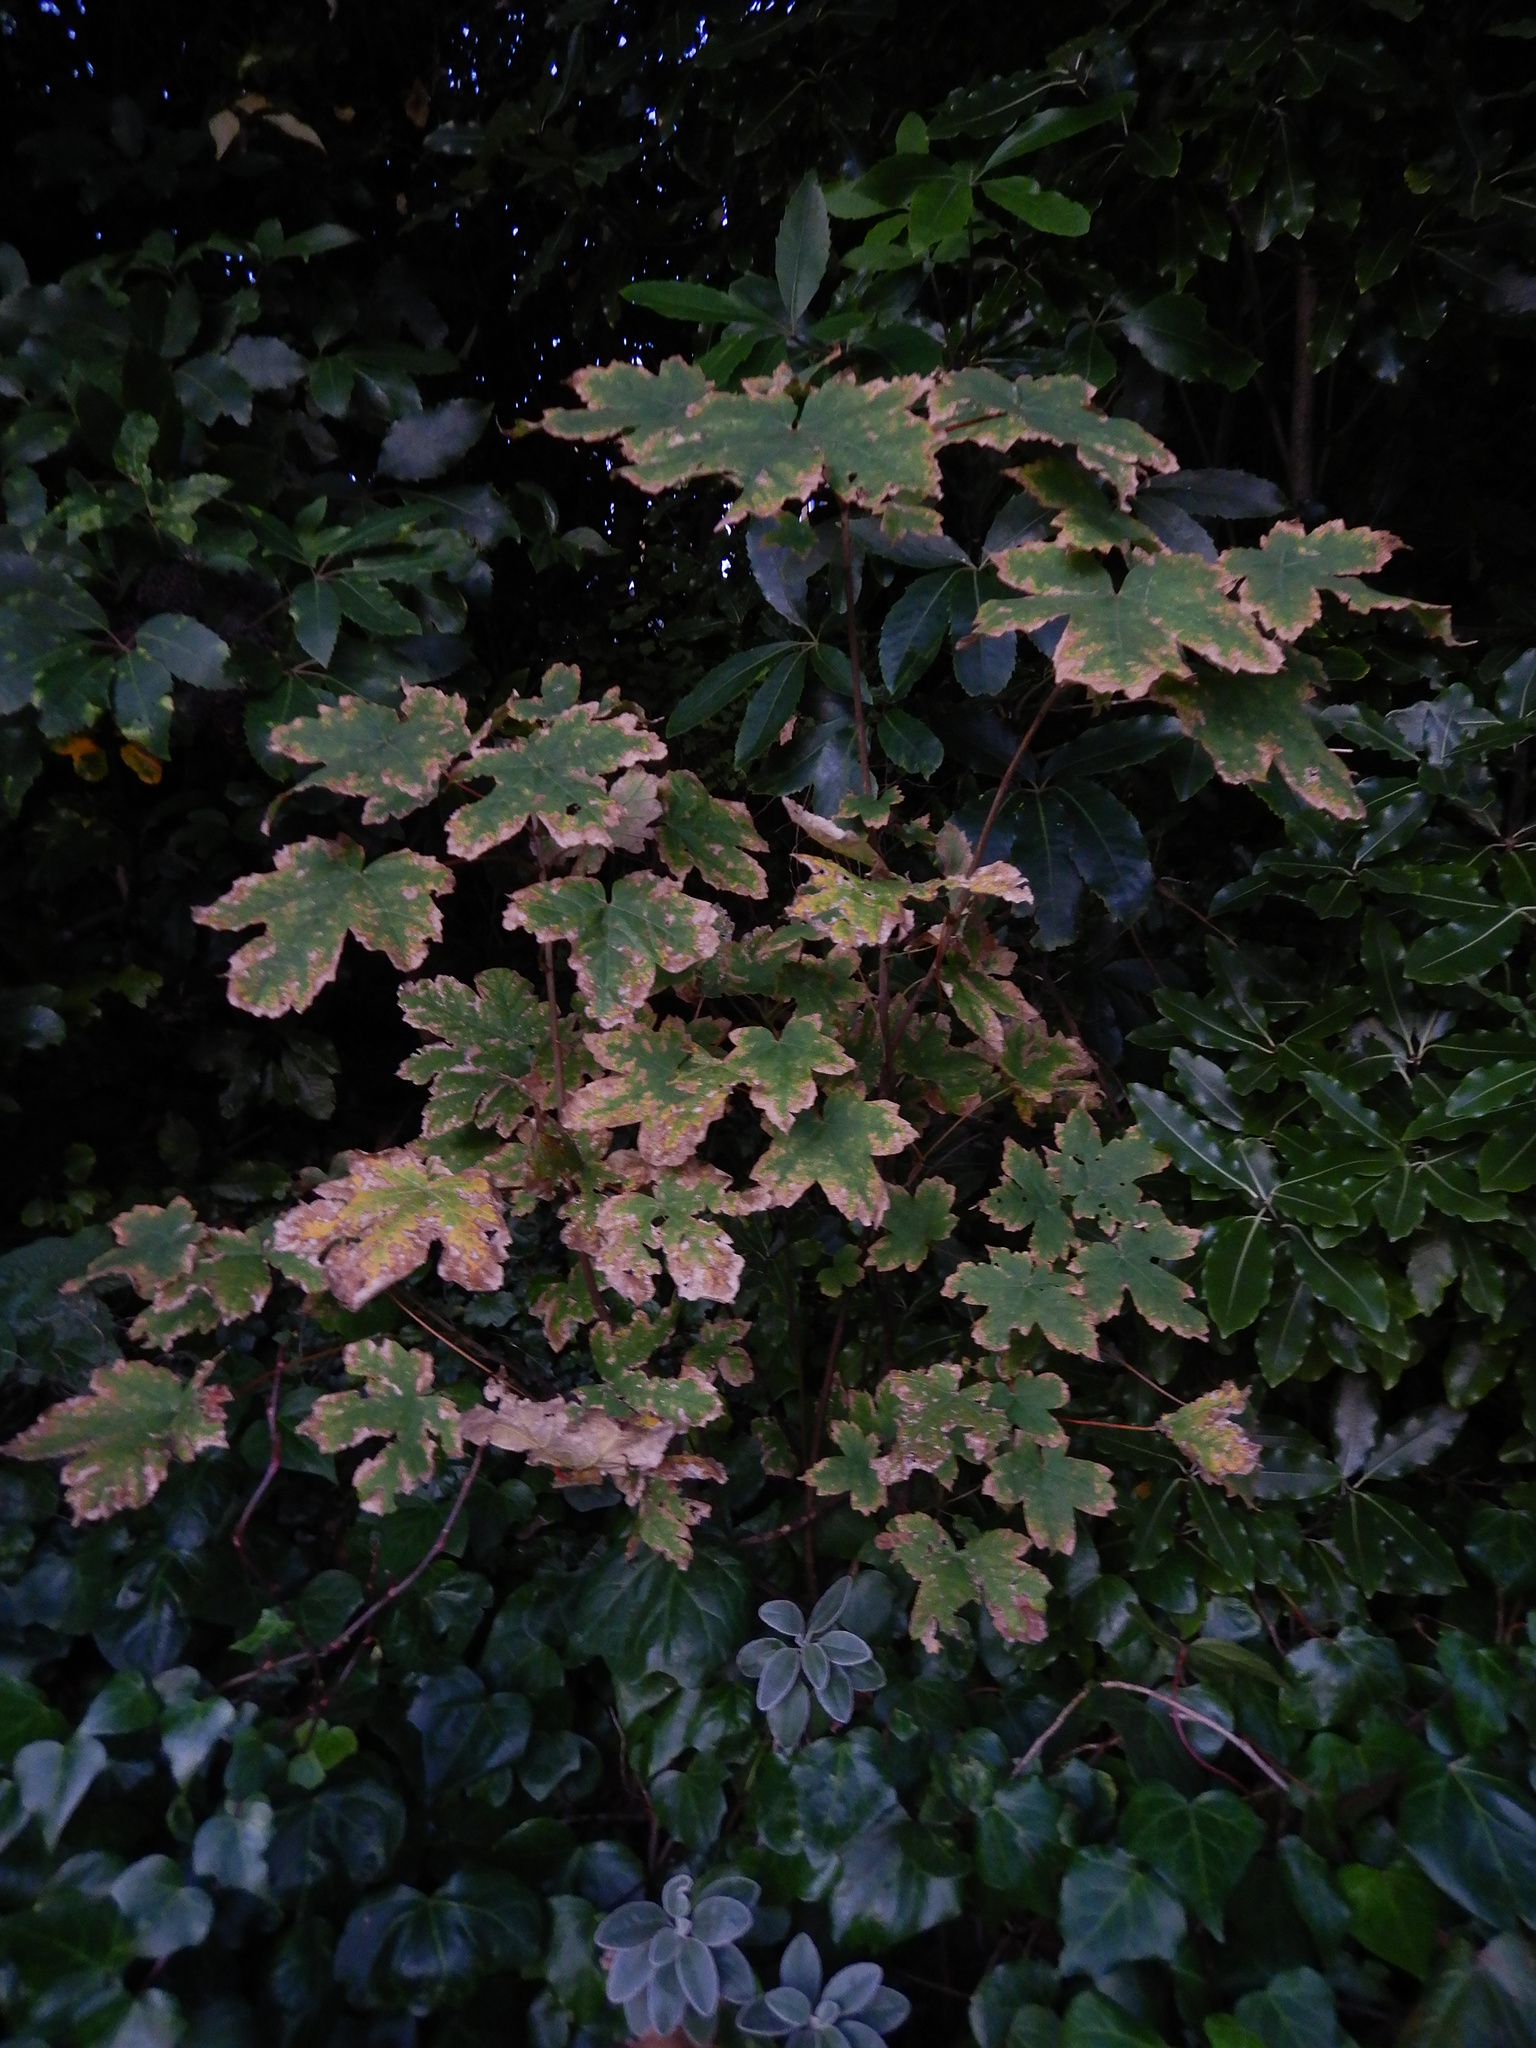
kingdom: Plantae
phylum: Tracheophyta
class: Magnoliopsida
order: Sapindales
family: Sapindaceae
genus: Acer
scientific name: Acer pseudoplatanus
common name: Sycamore
